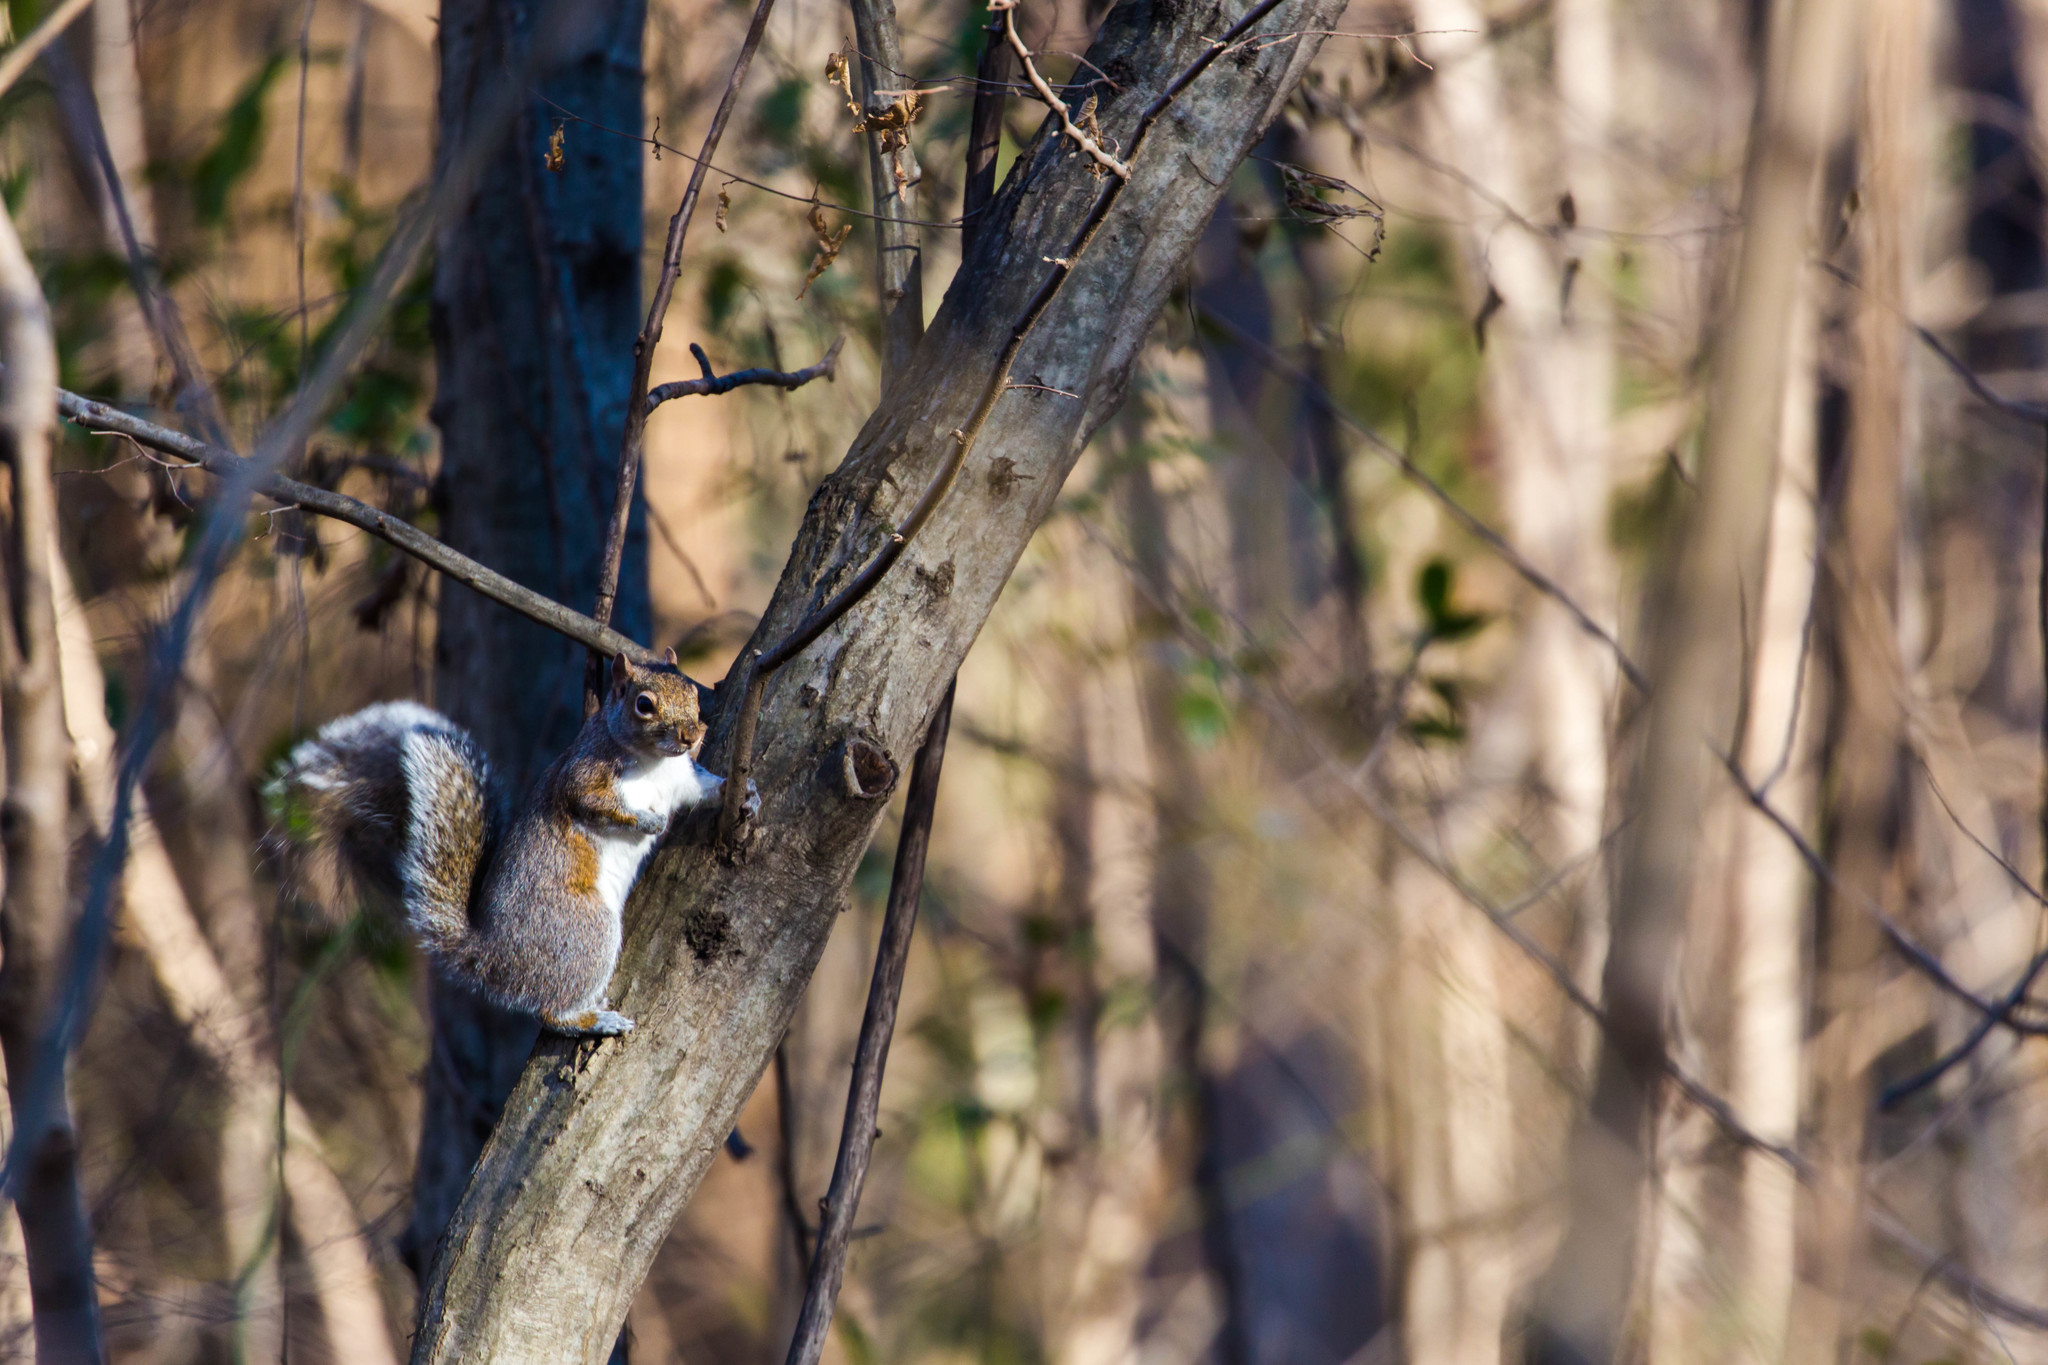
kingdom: Animalia
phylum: Chordata
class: Mammalia
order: Rodentia
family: Sciuridae
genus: Sciurus
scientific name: Sciurus carolinensis
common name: Eastern gray squirrel
